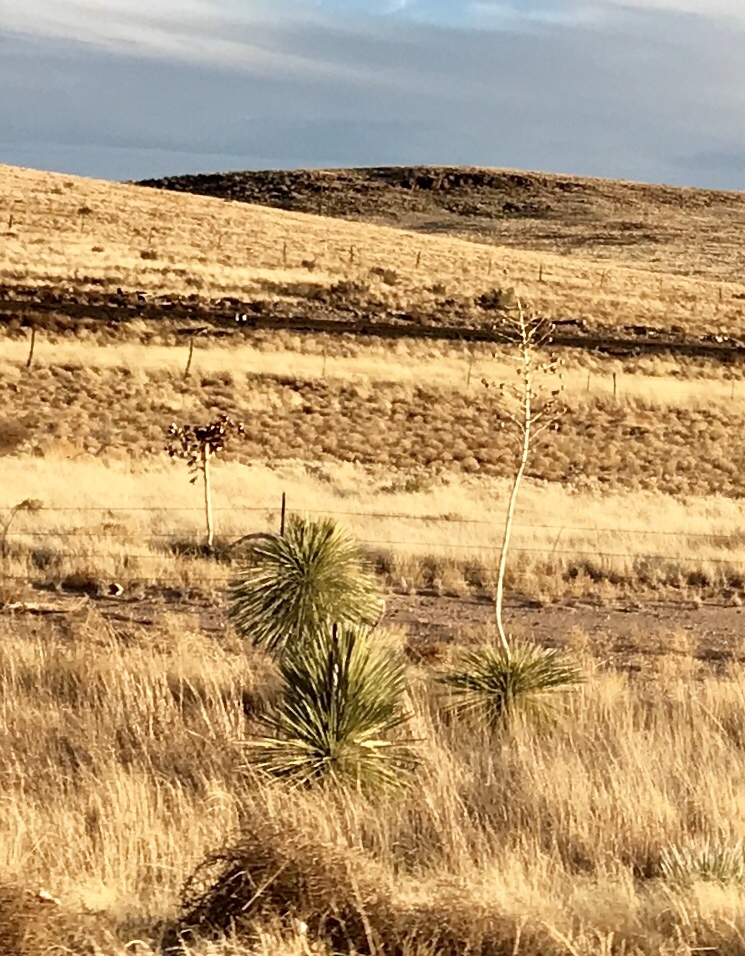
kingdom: Plantae
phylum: Tracheophyta
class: Liliopsida
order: Asparagales
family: Asparagaceae
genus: Yucca
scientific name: Yucca elata
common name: Palmella
